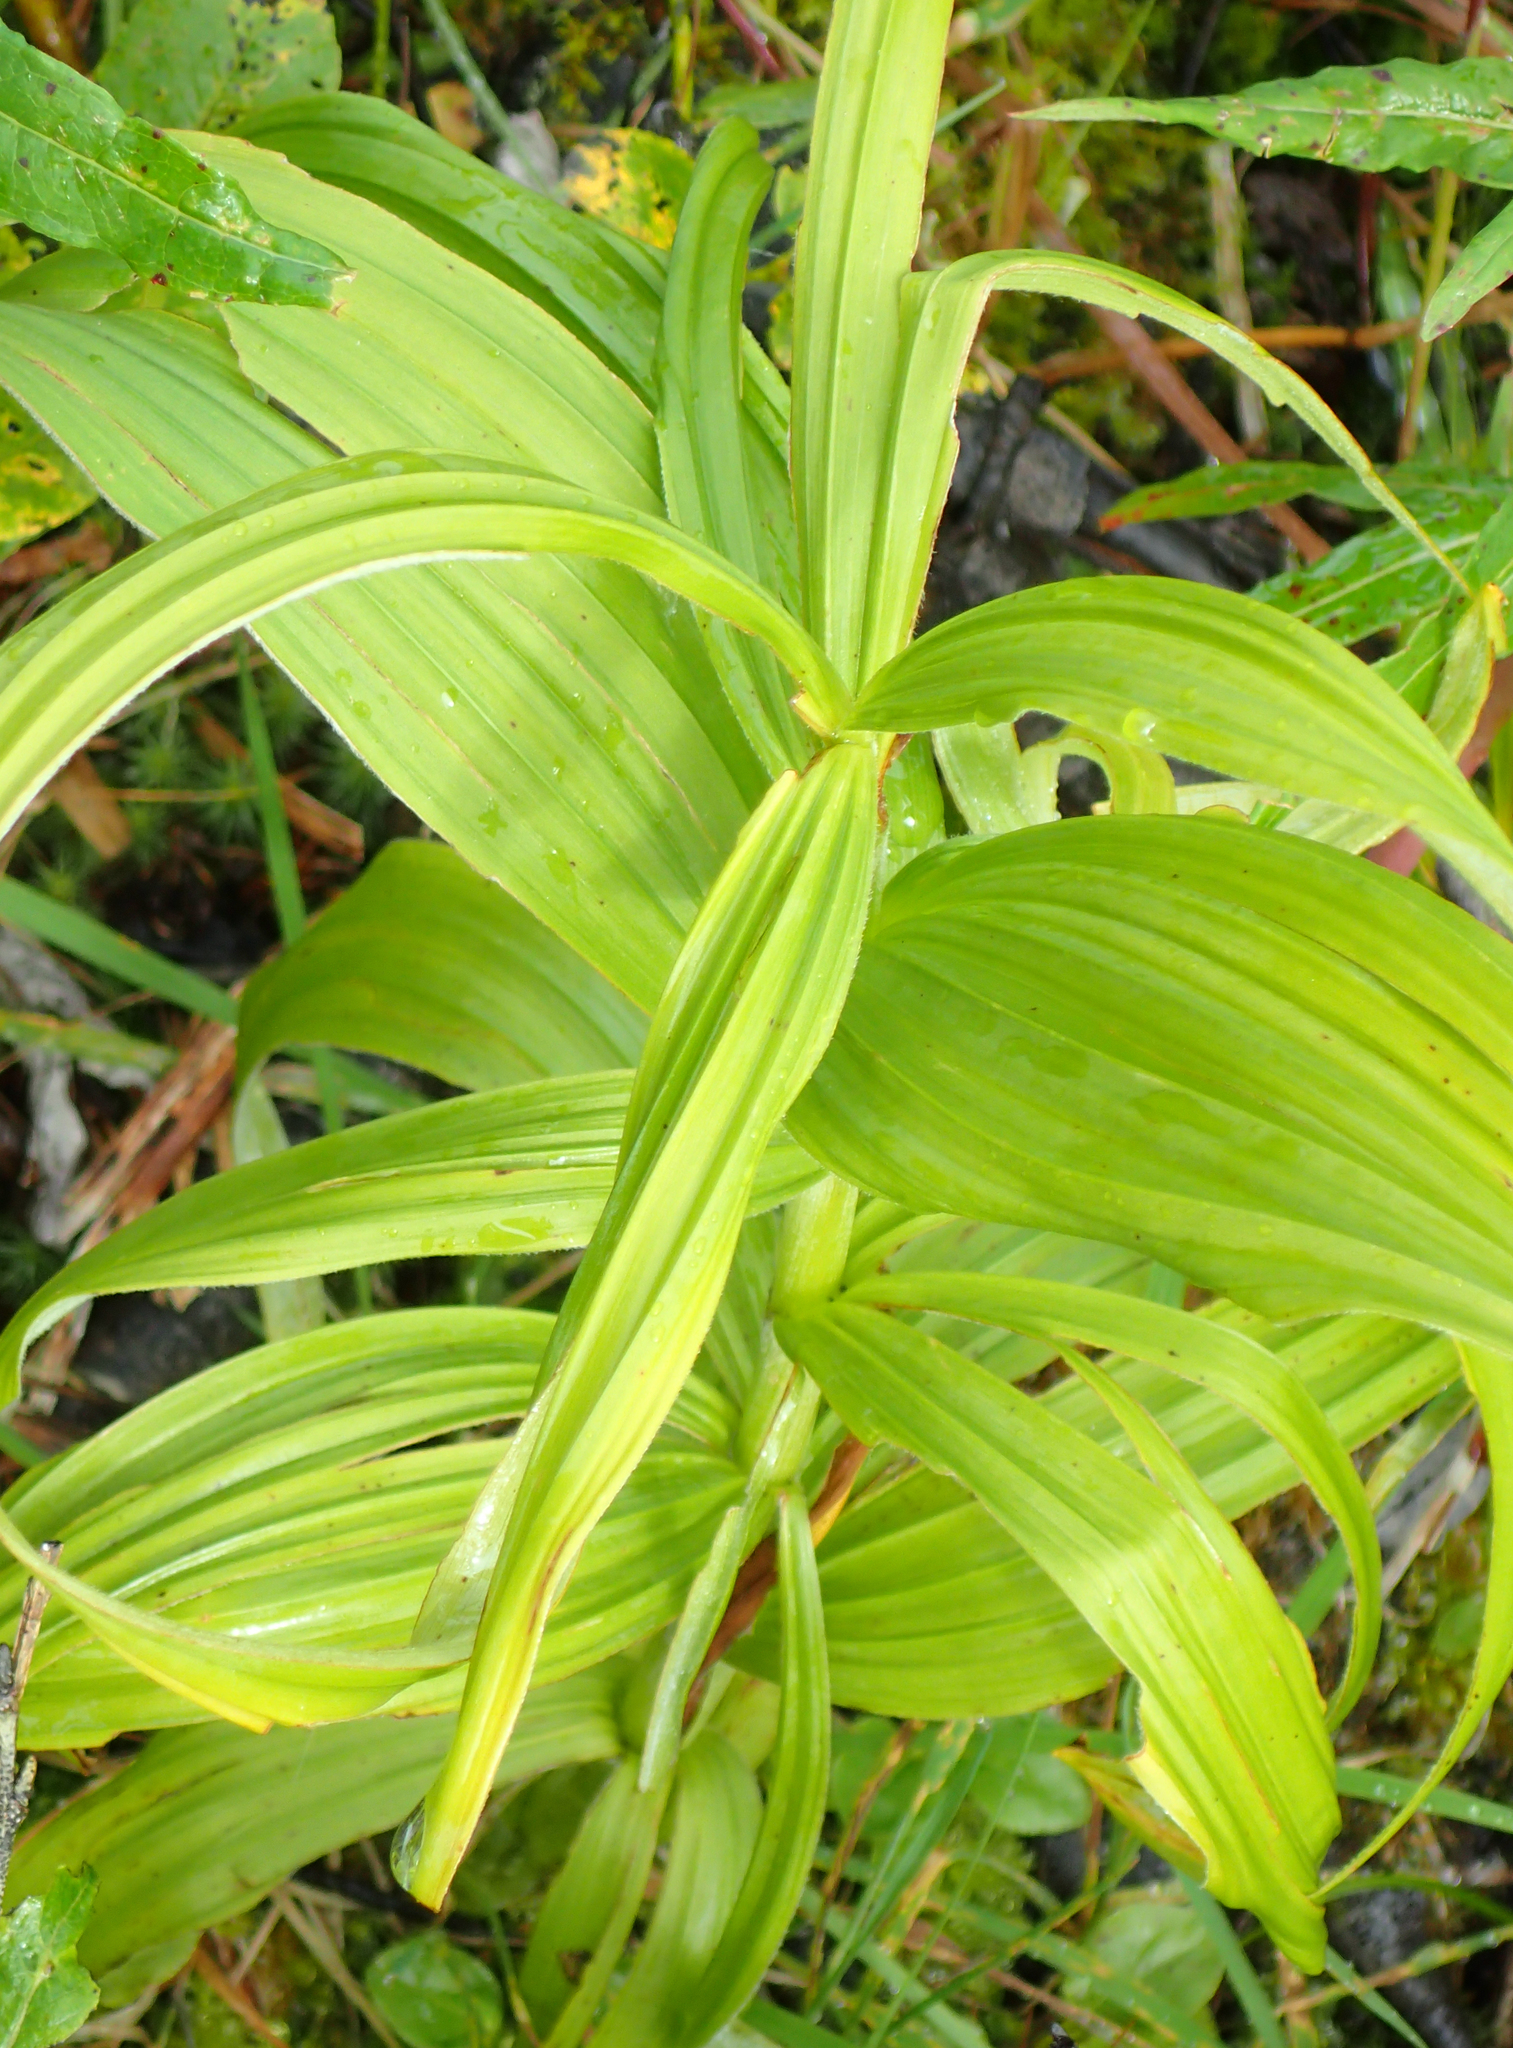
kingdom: Plantae
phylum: Tracheophyta
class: Liliopsida
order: Liliales
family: Melanthiaceae
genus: Veratrum
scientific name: Veratrum viride
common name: American false hellebore
